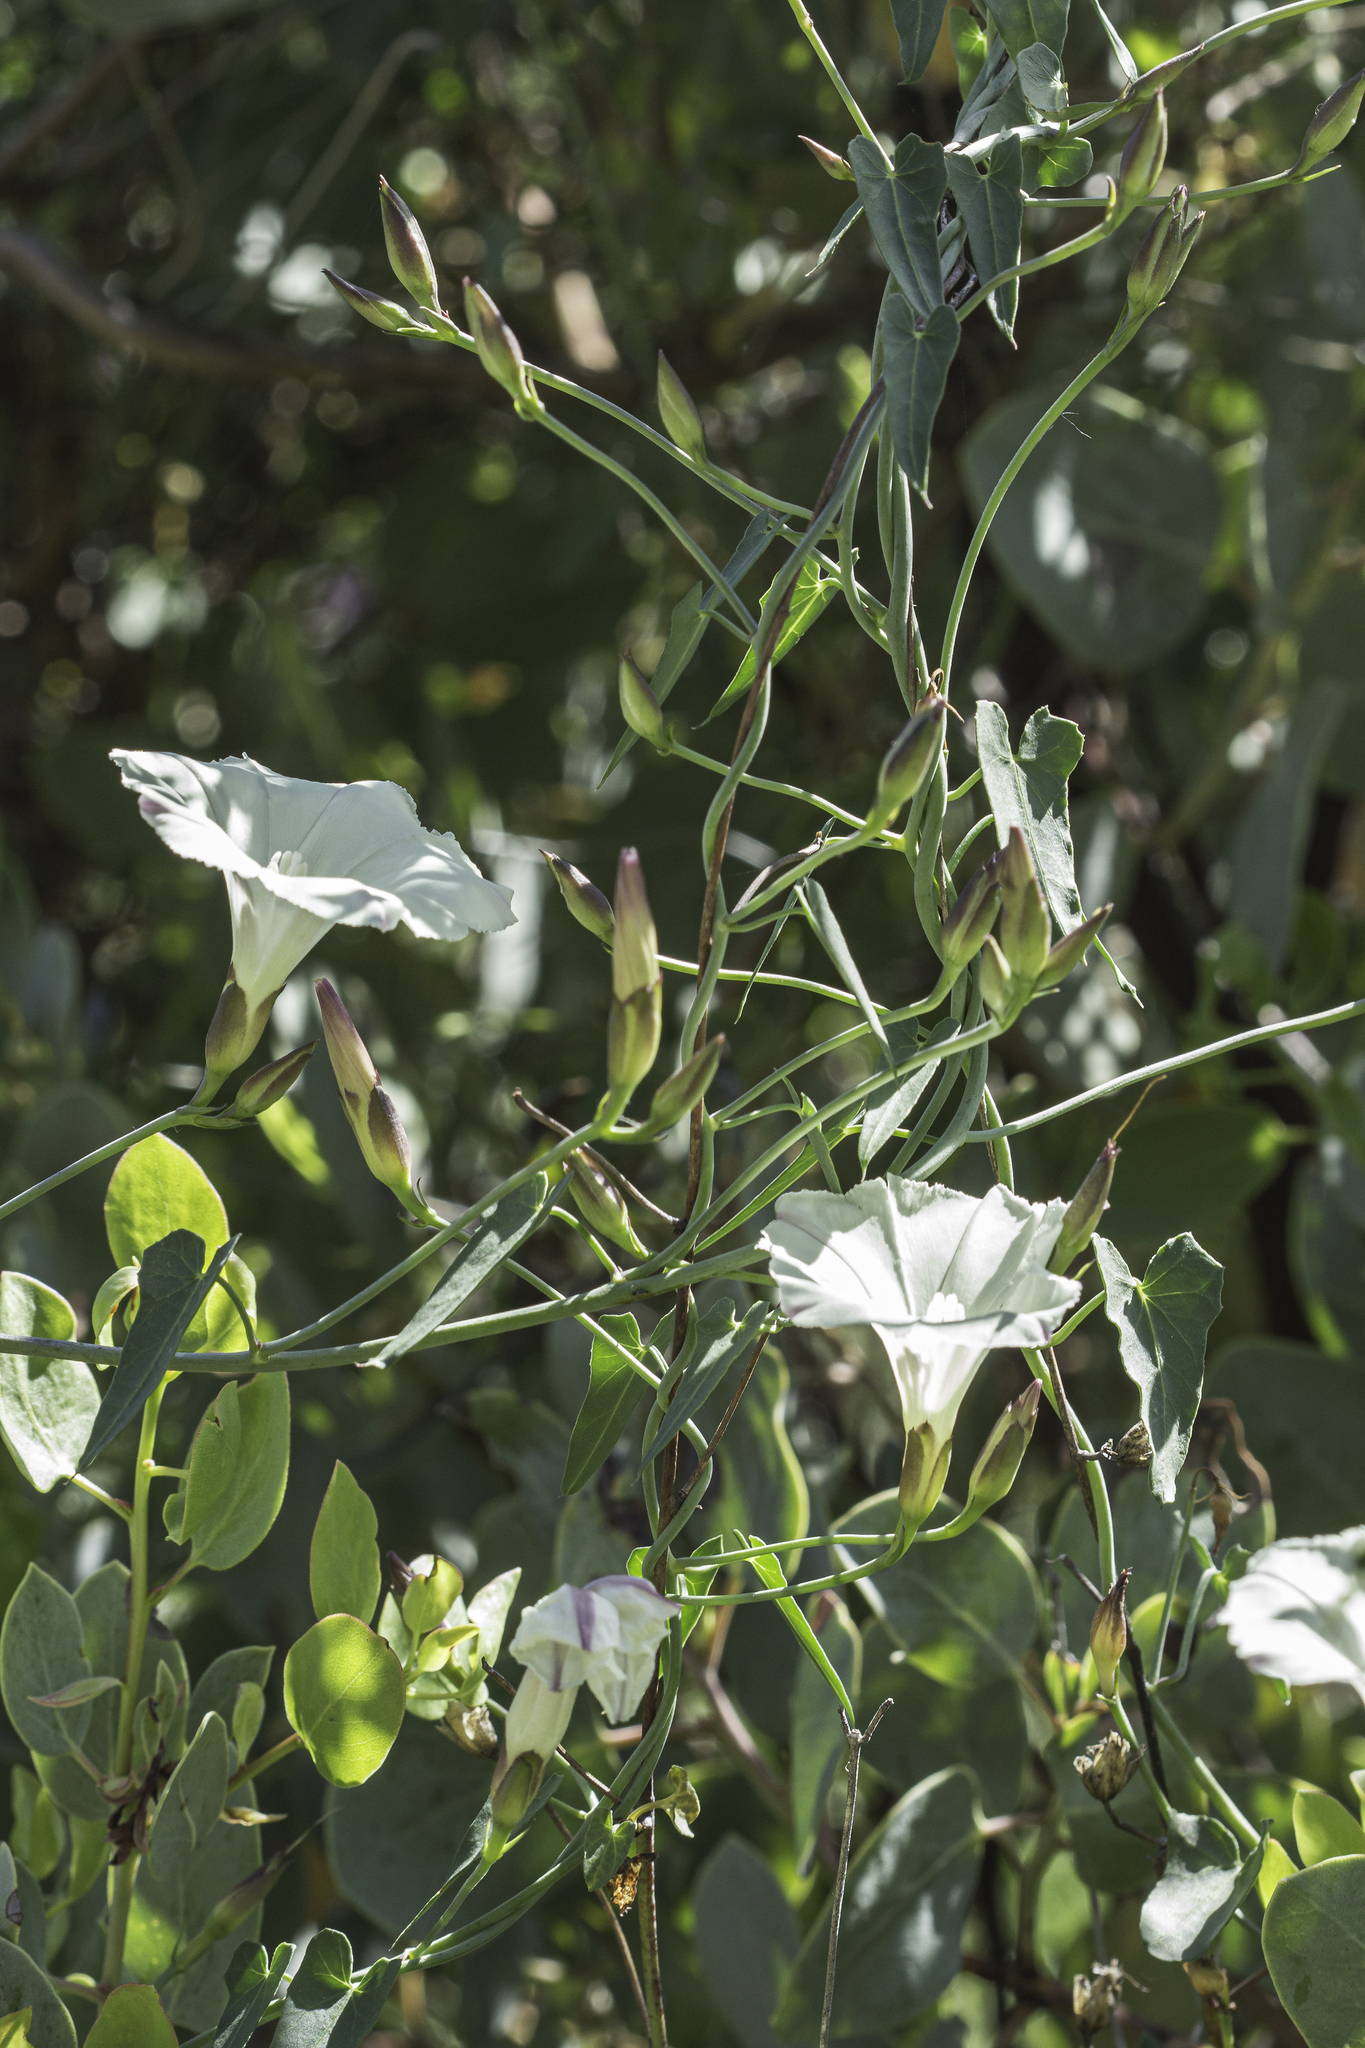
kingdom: Plantae
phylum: Tracheophyta
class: Magnoliopsida
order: Solanales
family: Convolvulaceae
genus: Calystegia
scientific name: Calystegia purpurata
